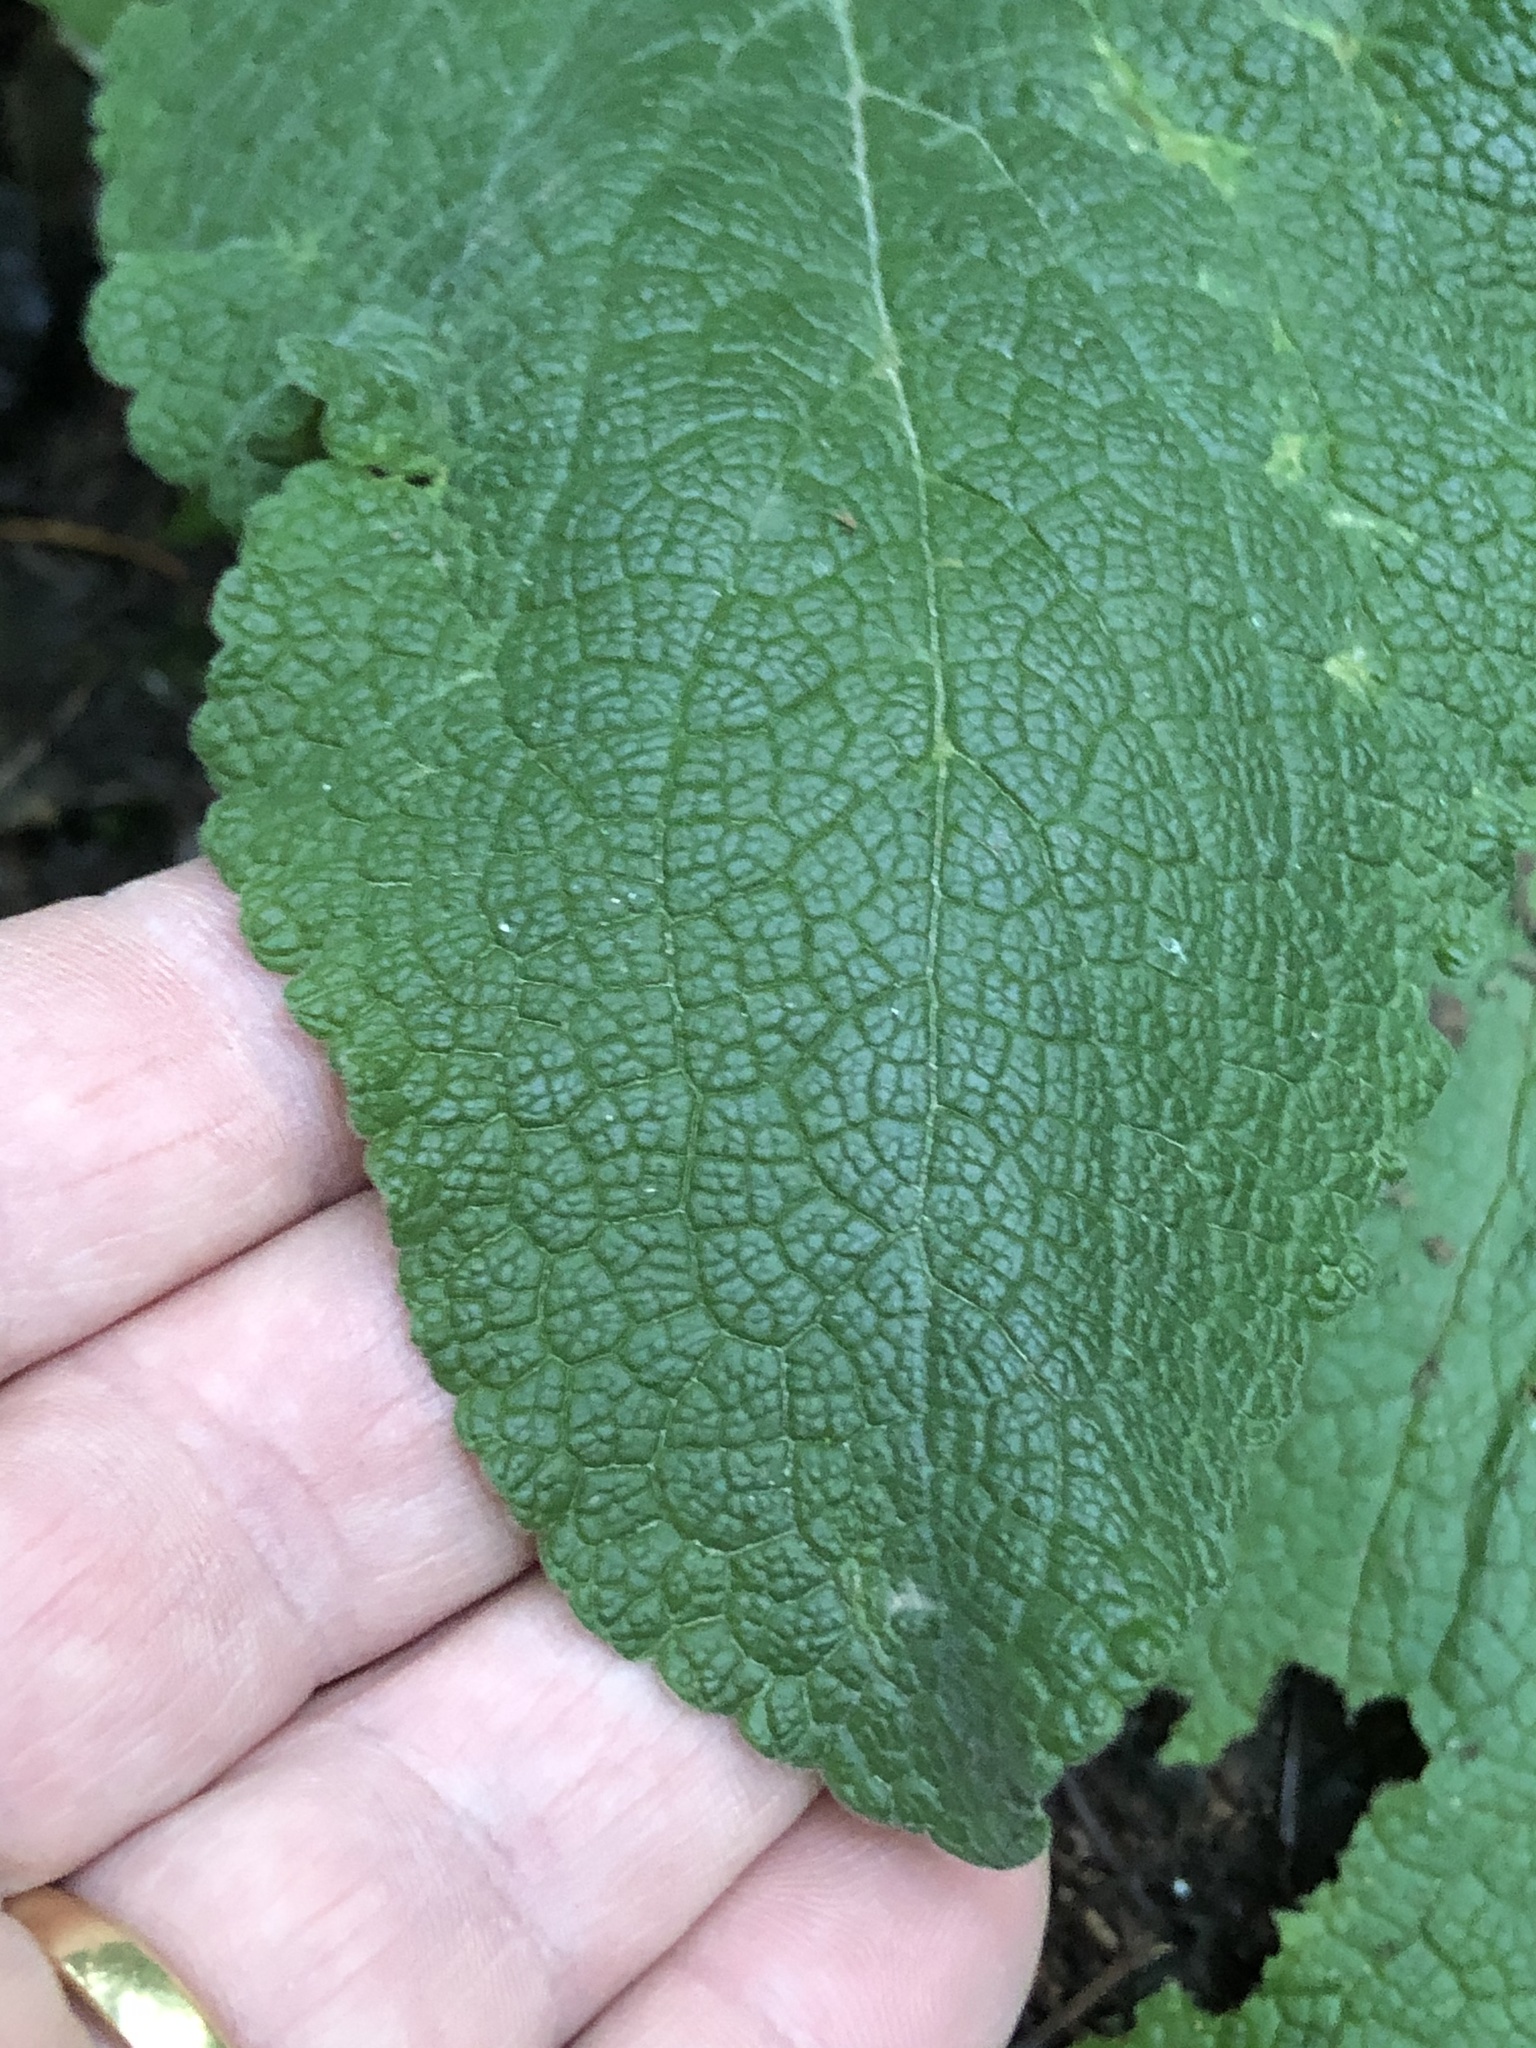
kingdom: Plantae
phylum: Tracheophyta
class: Magnoliopsida
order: Lamiales
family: Plantaginaceae
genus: Digitalis
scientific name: Digitalis purpurea
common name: Foxglove
